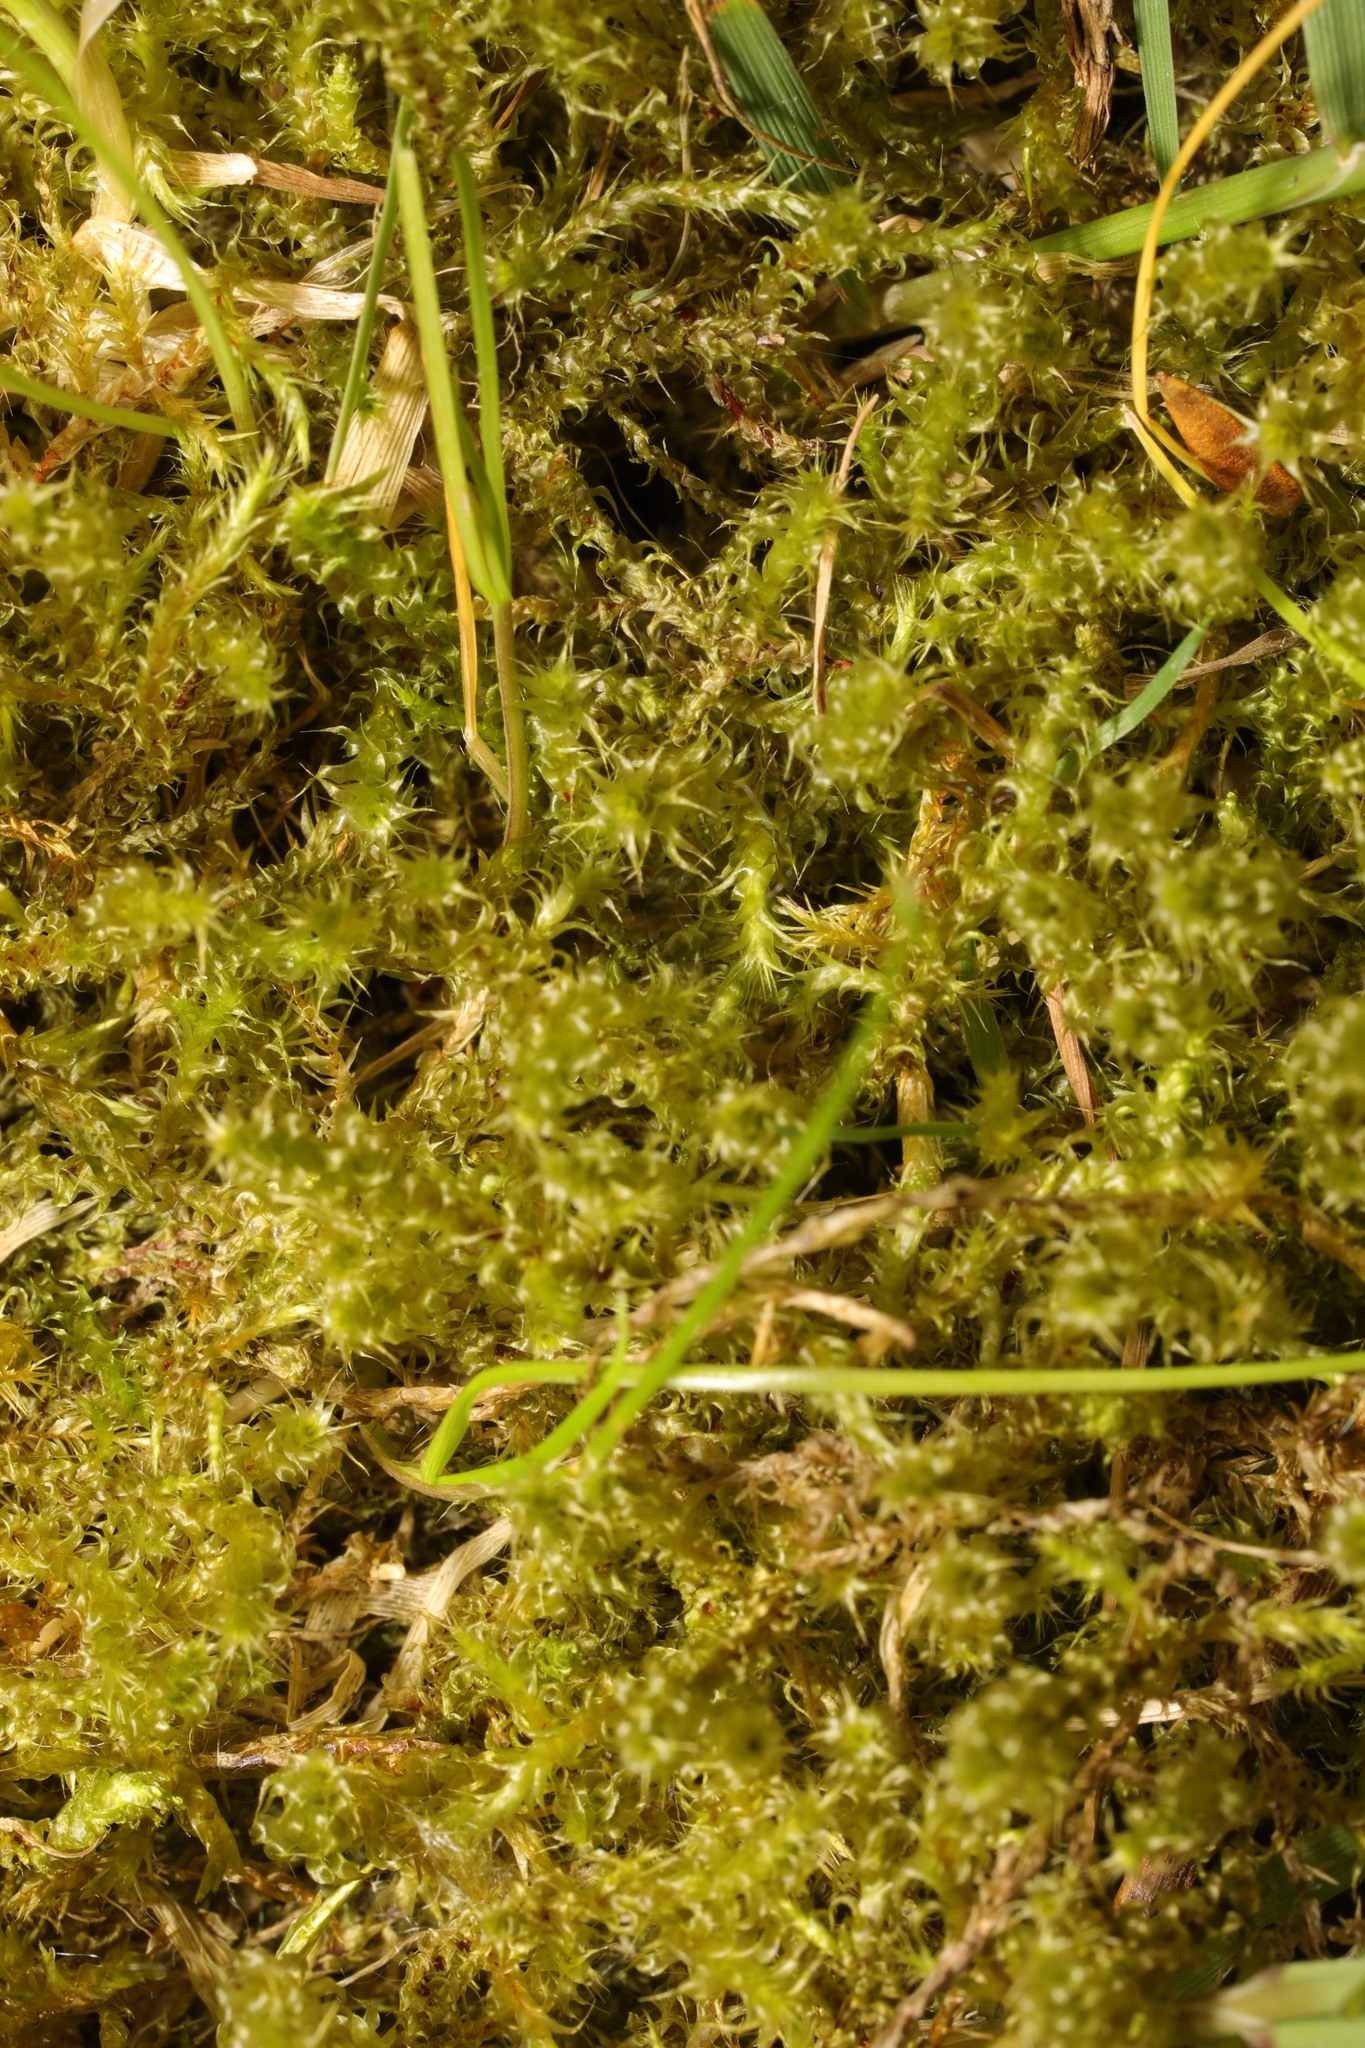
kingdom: Plantae
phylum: Bryophyta
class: Bryopsida
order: Hypnales
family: Hylocomiaceae
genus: Rhytidiadelphus
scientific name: Rhytidiadelphus squarrosus
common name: Springy turf-moss
